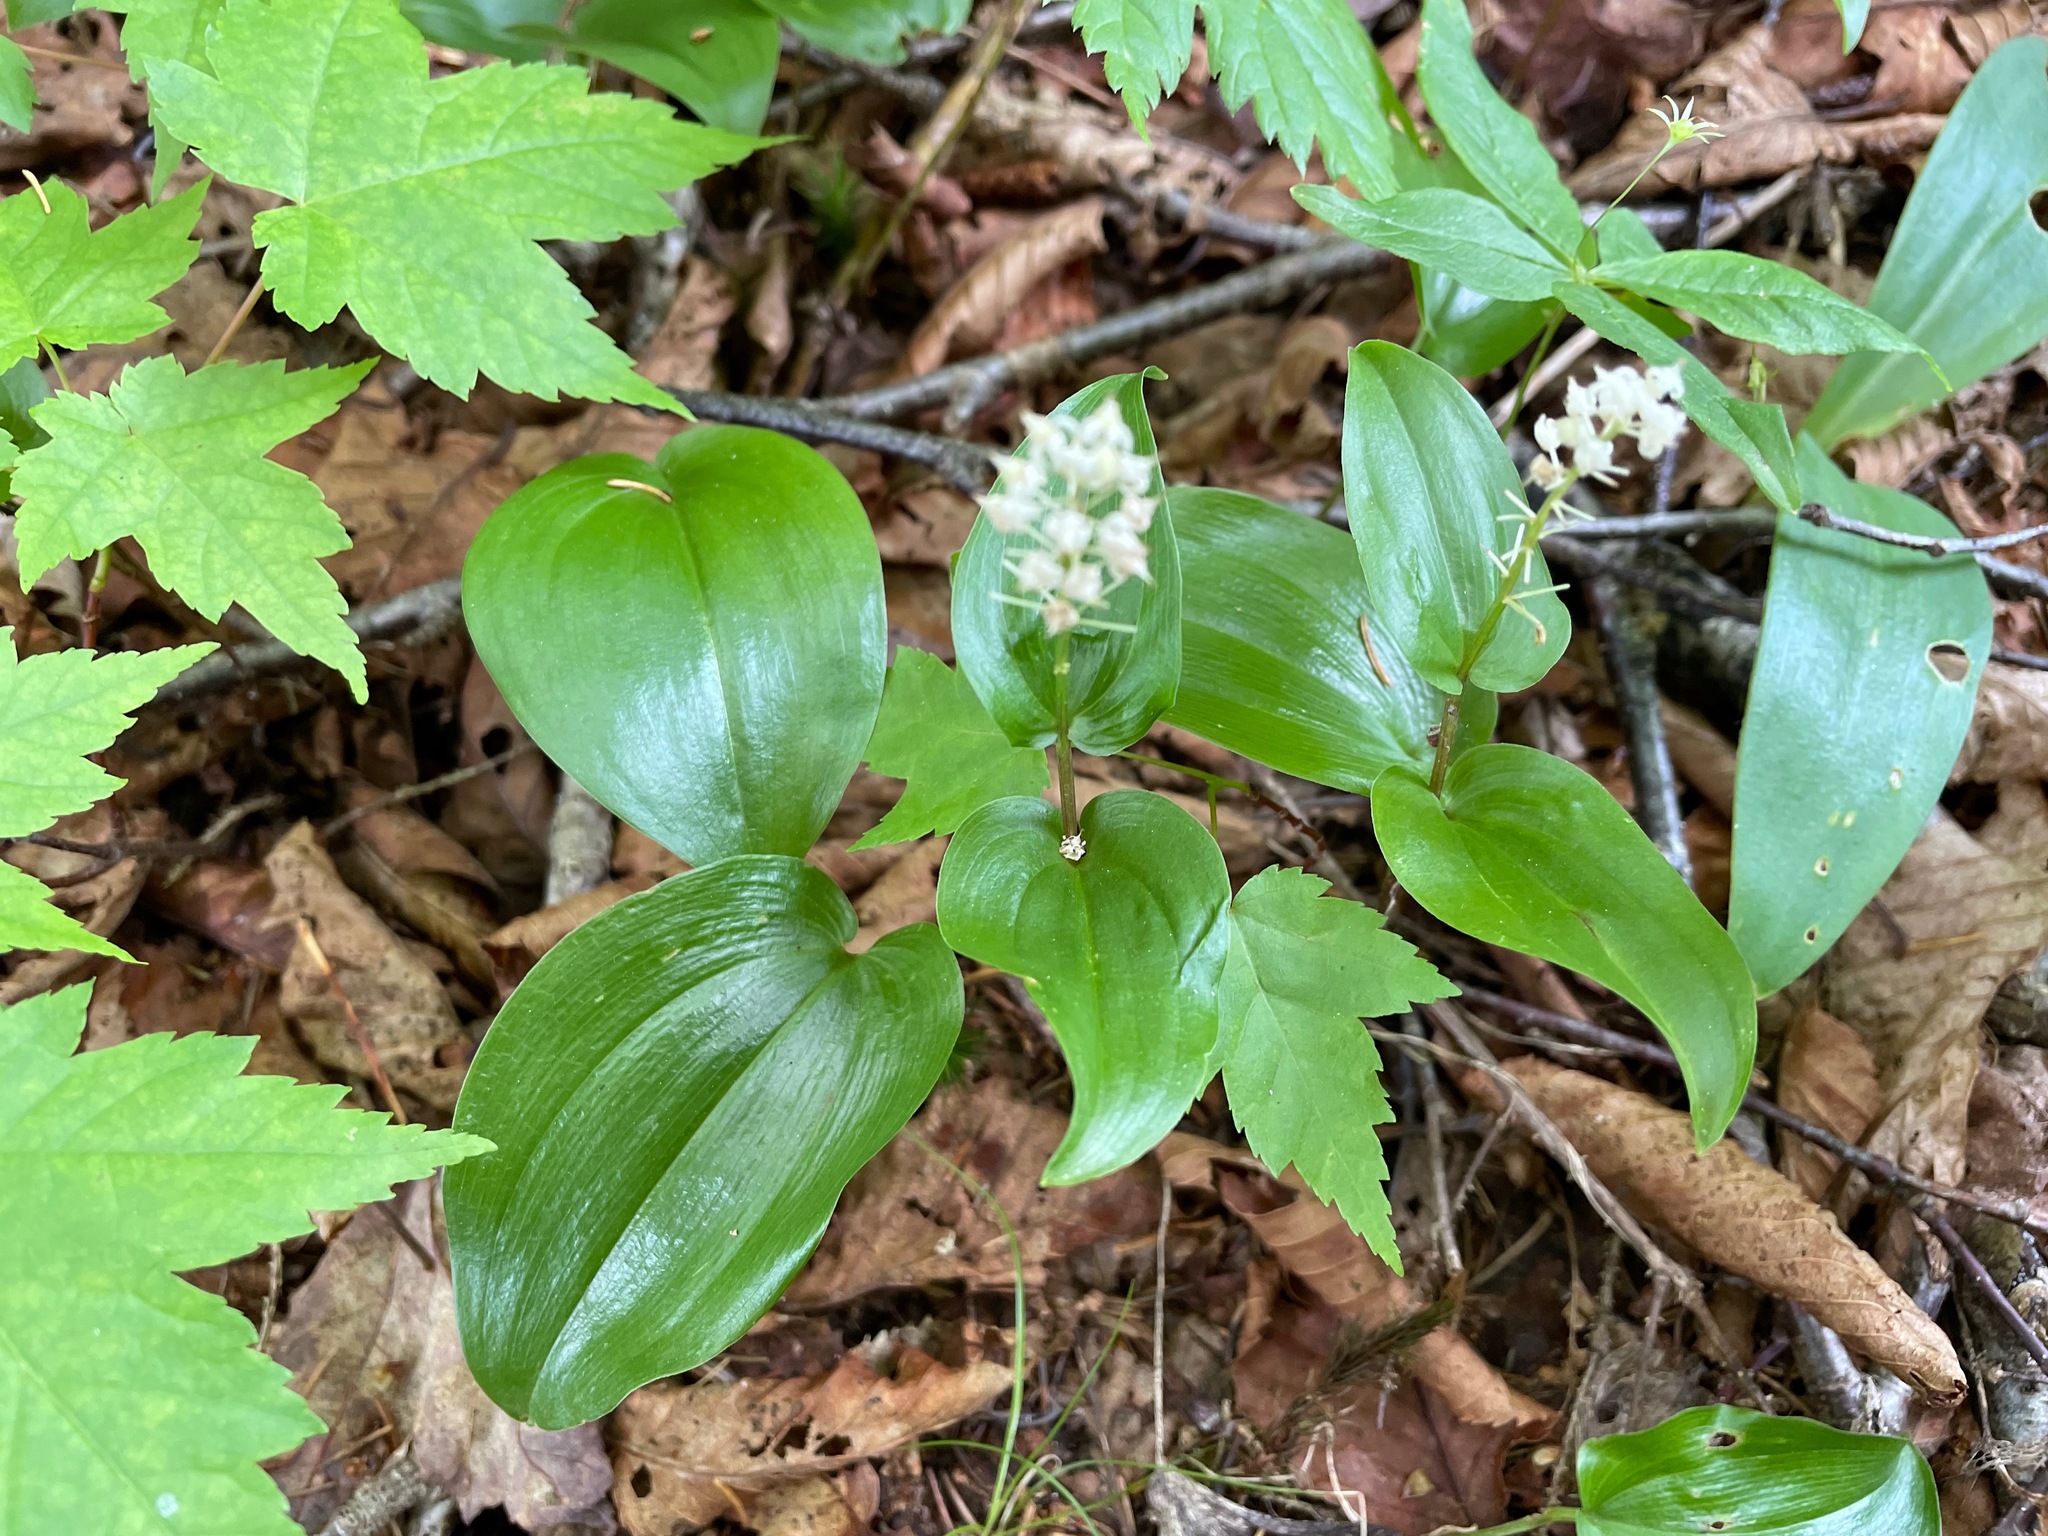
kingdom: Plantae
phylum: Tracheophyta
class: Liliopsida
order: Asparagales
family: Asparagaceae
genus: Maianthemum
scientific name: Maianthemum canadense
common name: False lily-of-the-valley
